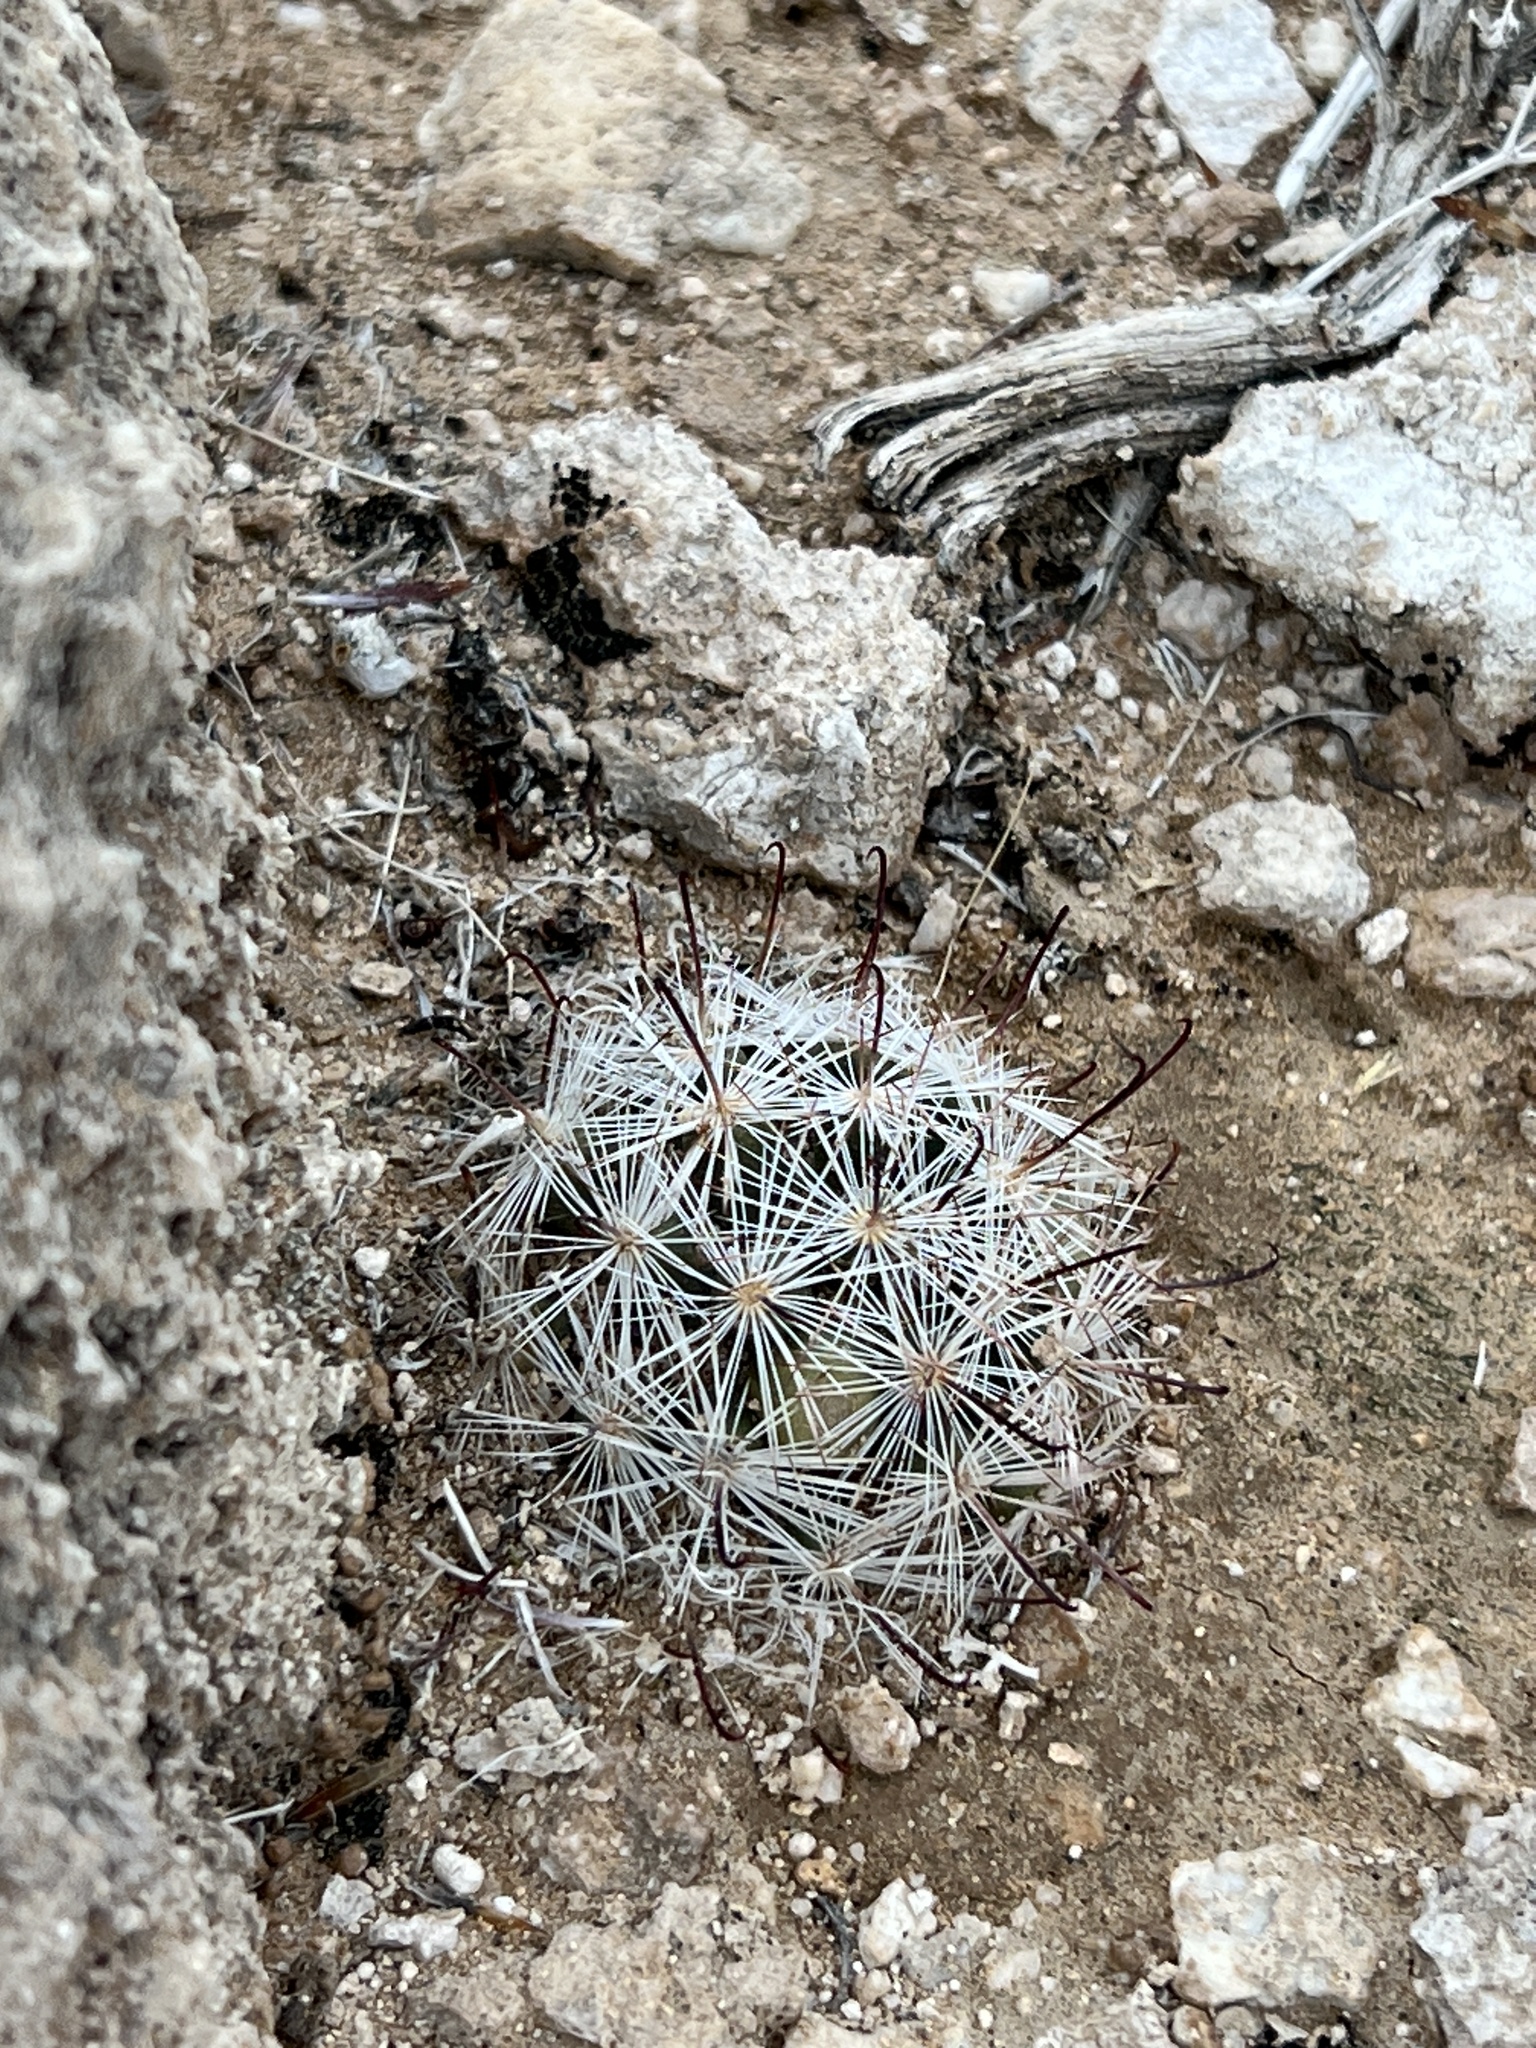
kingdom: Plantae
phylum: Tracheophyta
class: Magnoliopsida
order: Caryophyllales
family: Cactaceae
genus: Cochemiea
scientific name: Cochemiea tetrancistra
